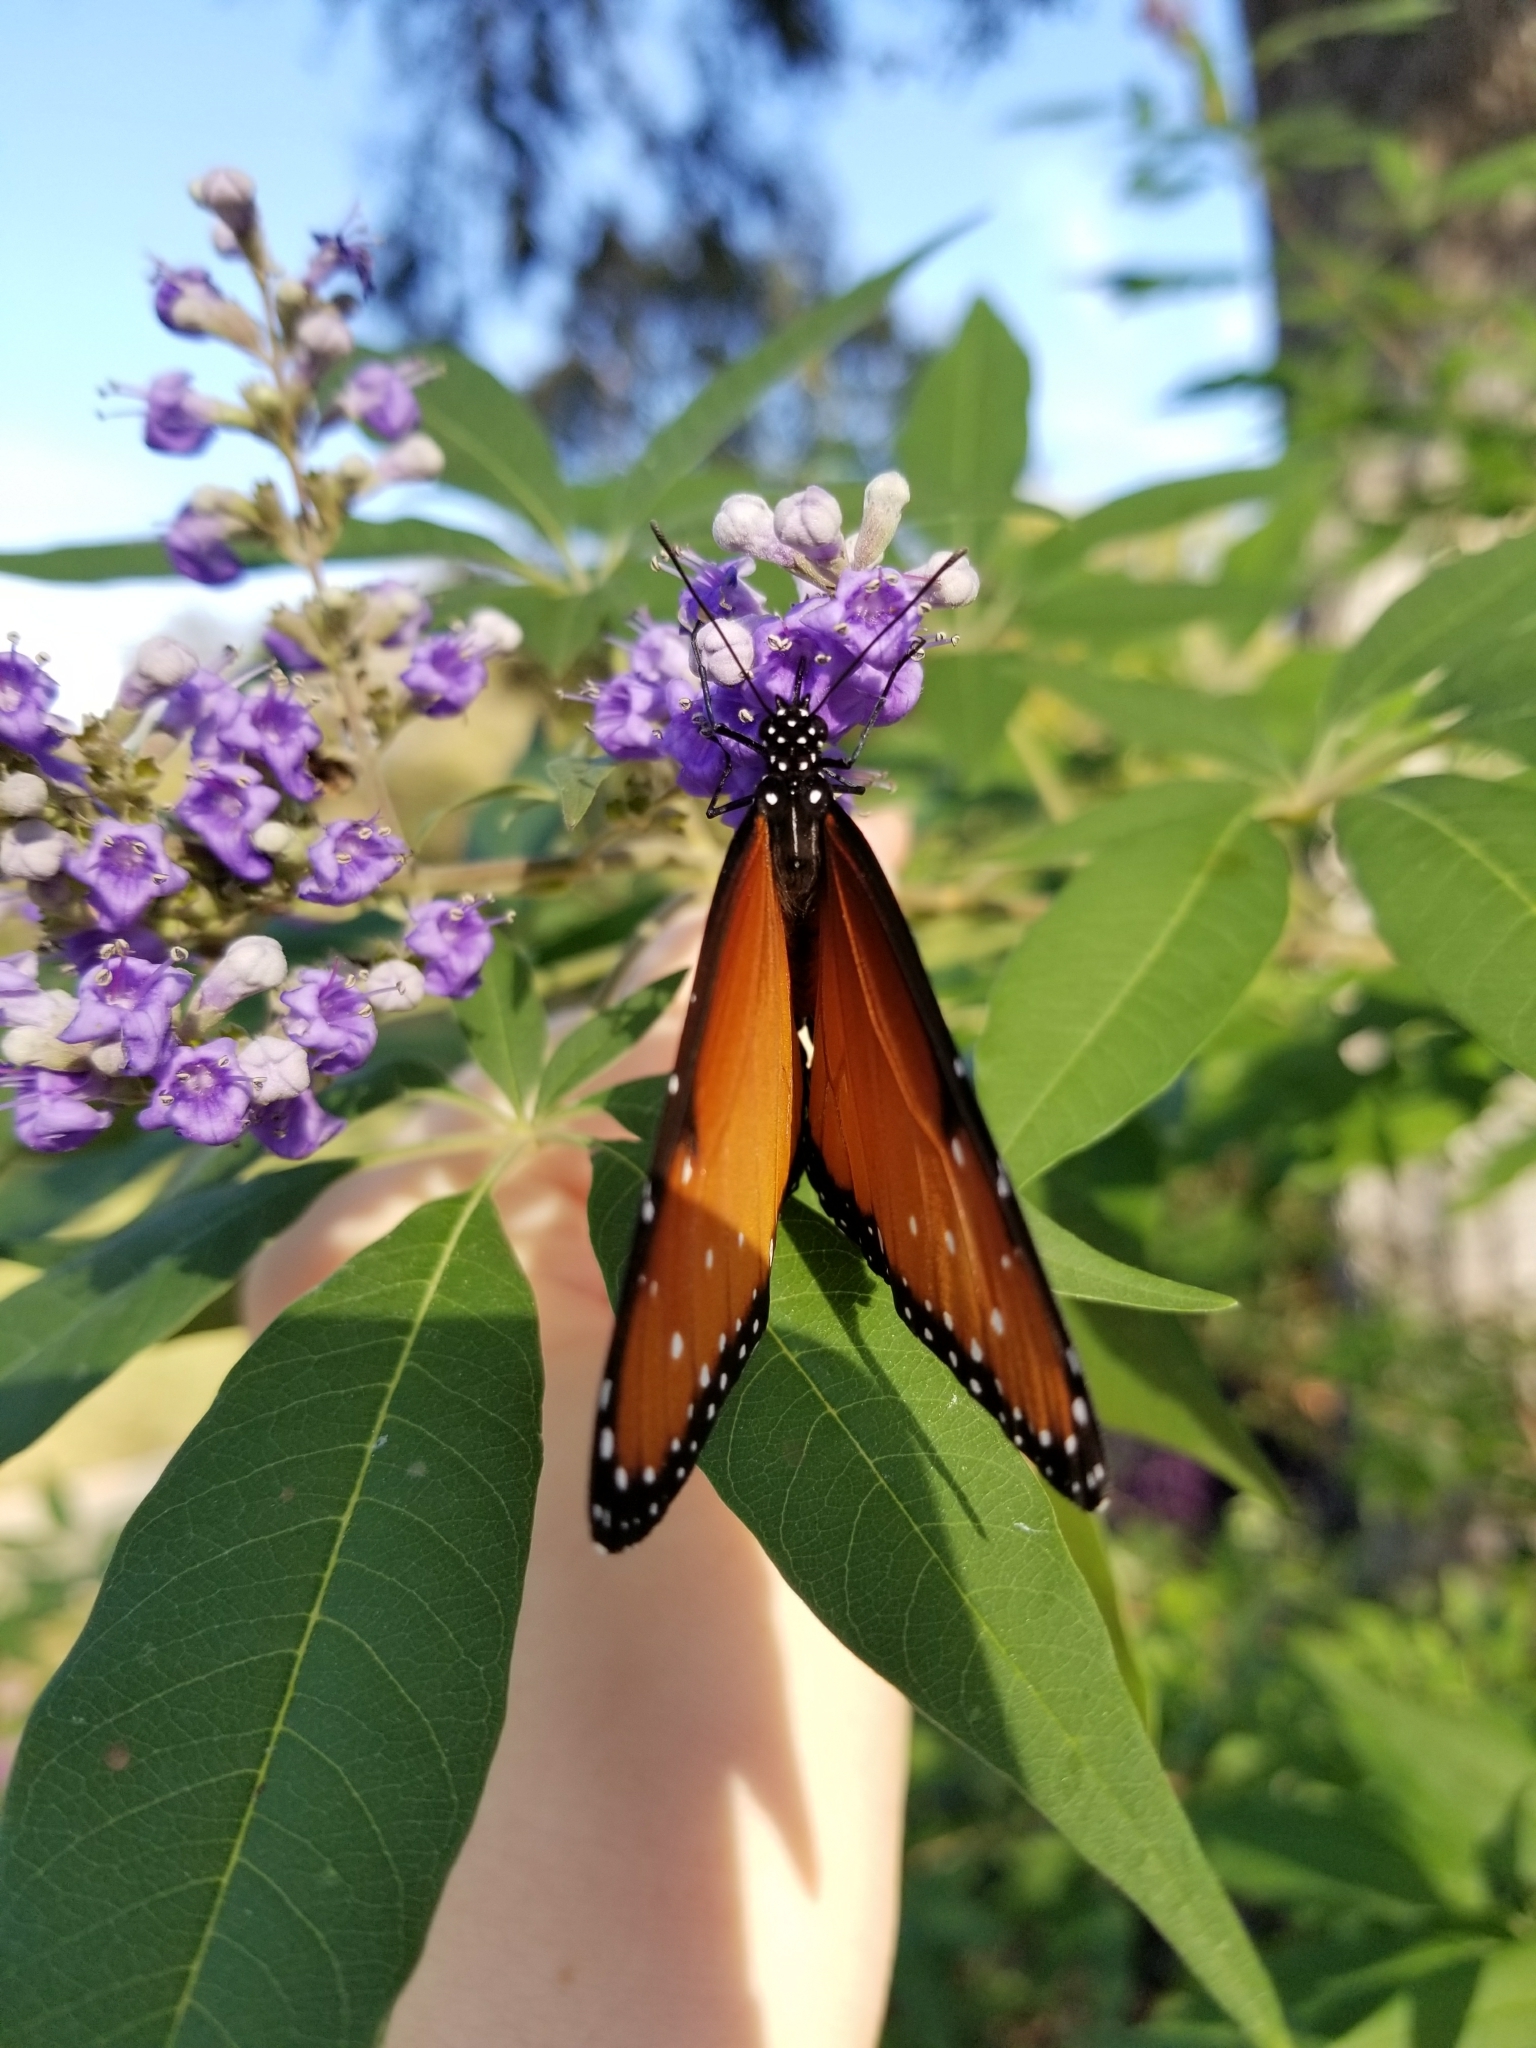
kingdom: Animalia
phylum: Arthropoda
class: Insecta
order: Lepidoptera
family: Nymphalidae
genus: Danaus
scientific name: Danaus gilippus
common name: Queen
